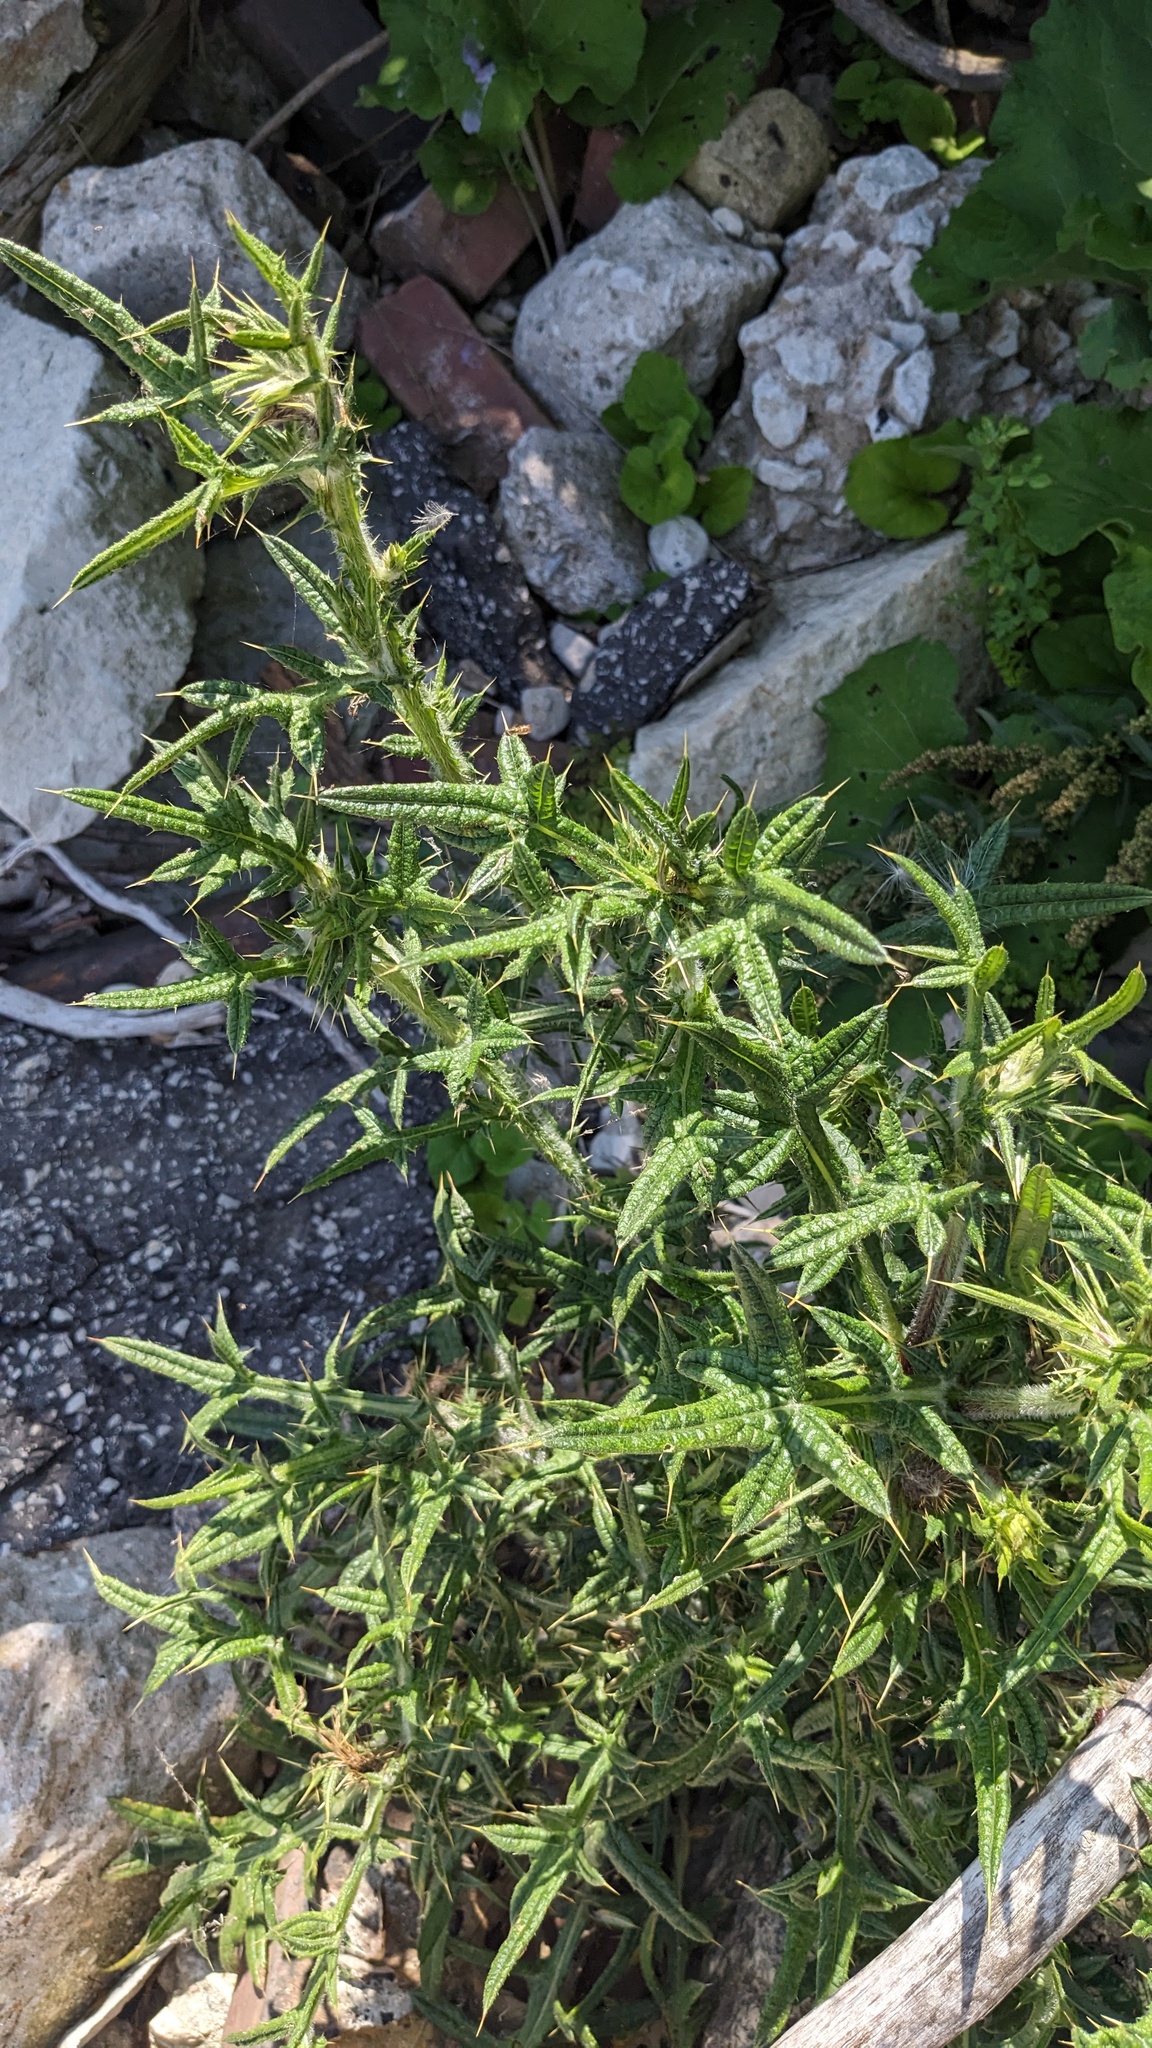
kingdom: Plantae
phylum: Tracheophyta
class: Magnoliopsida
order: Asterales
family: Asteraceae
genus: Cirsium
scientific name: Cirsium vulgare
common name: Bull thistle
